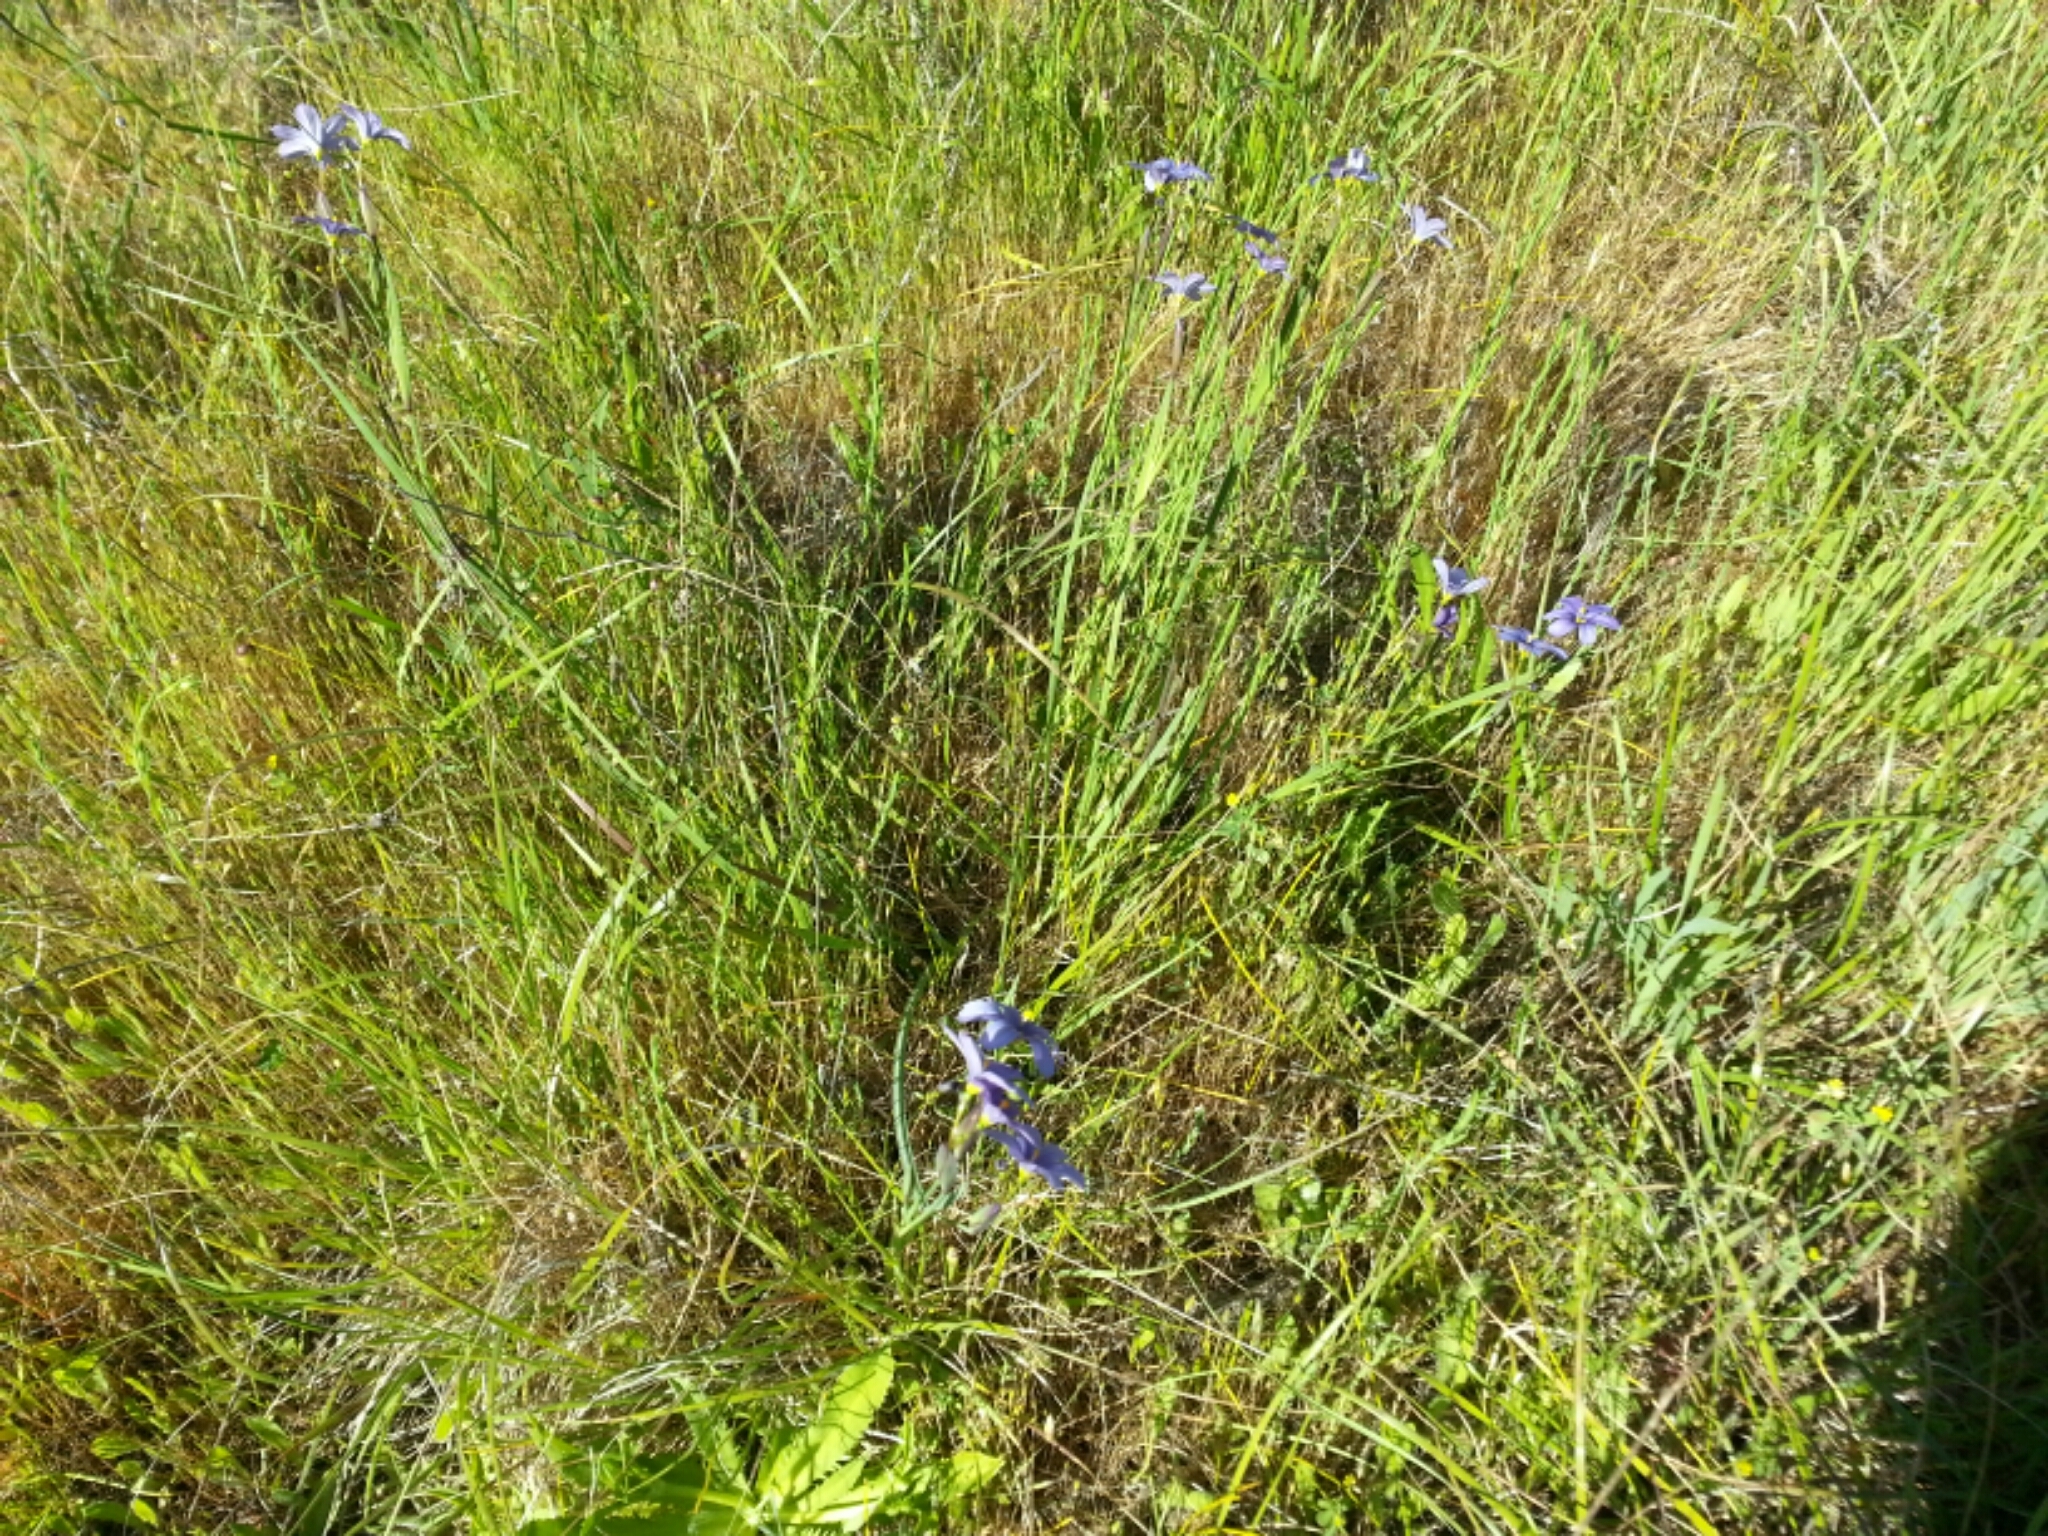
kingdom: Plantae
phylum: Tracheophyta
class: Liliopsida
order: Asparagales
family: Iridaceae
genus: Sisyrinchium
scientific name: Sisyrinchium bellum
